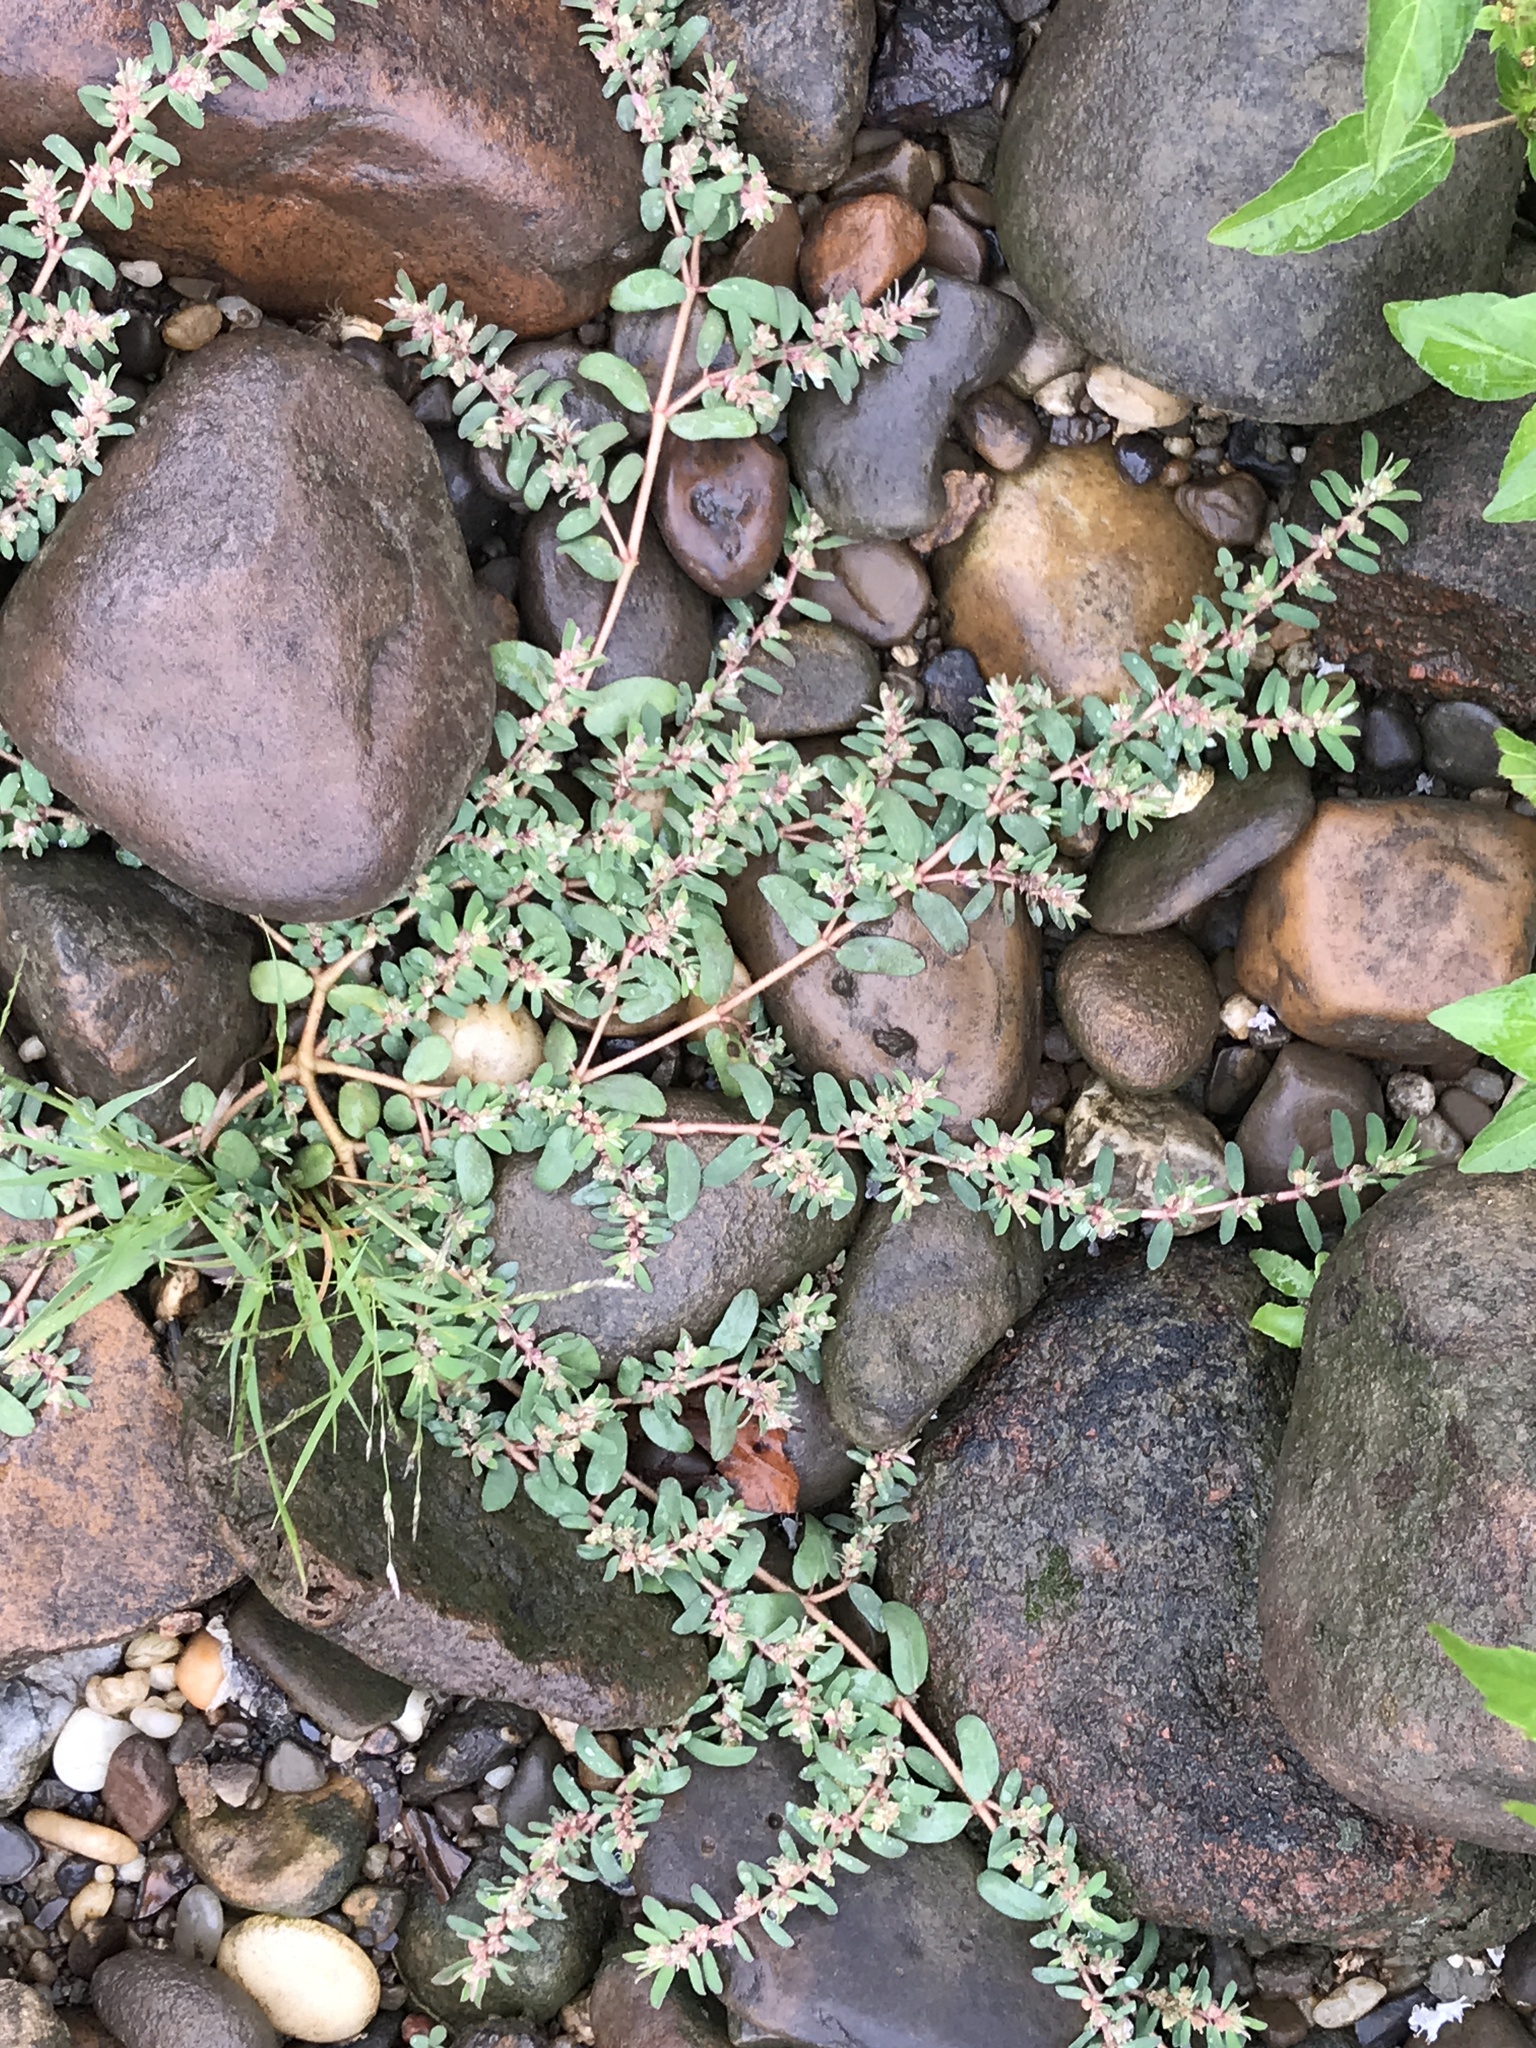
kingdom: Plantae
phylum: Tracheophyta
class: Magnoliopsida
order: Malpighiales
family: Euphorbiaceae
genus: Euphorbia
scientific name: Euphorbia maculata
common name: Spotted spurge
